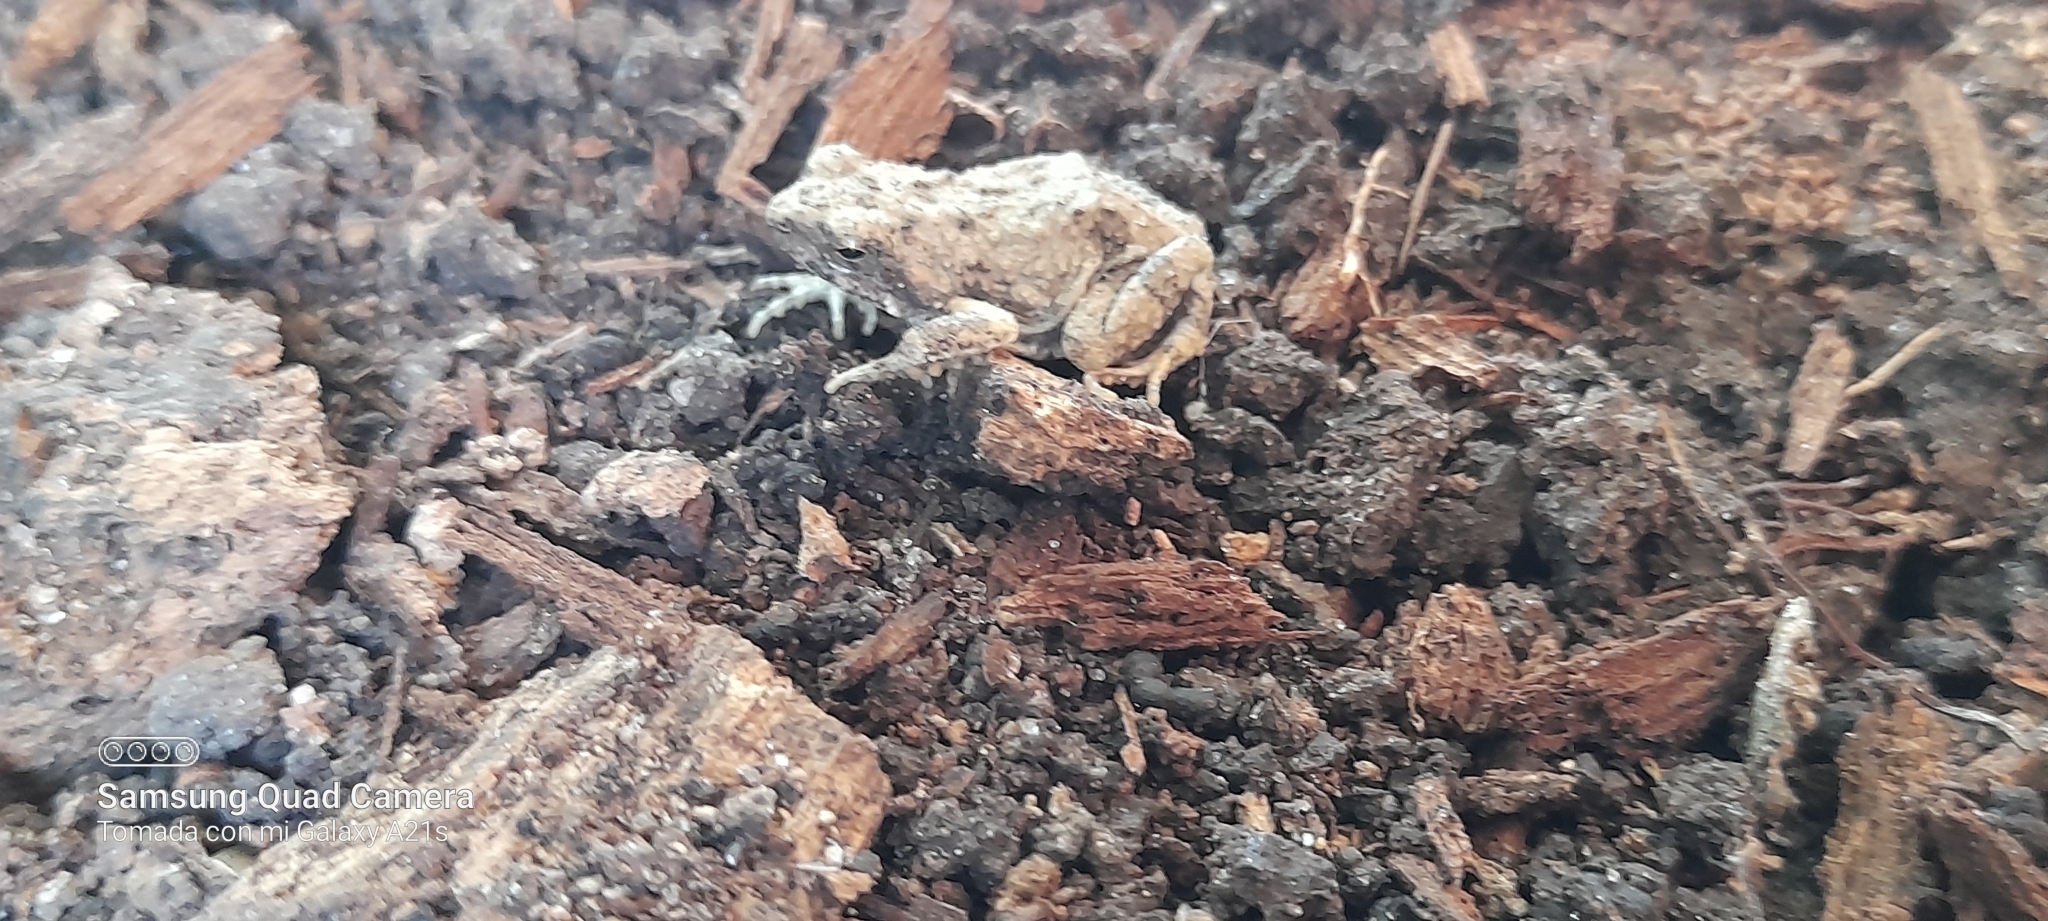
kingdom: Animalia
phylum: Chordata
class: Amphibia
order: Anura
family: Leptodactylidae
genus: Engystomops
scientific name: Engystomops pustulosus
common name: Tungara frog
